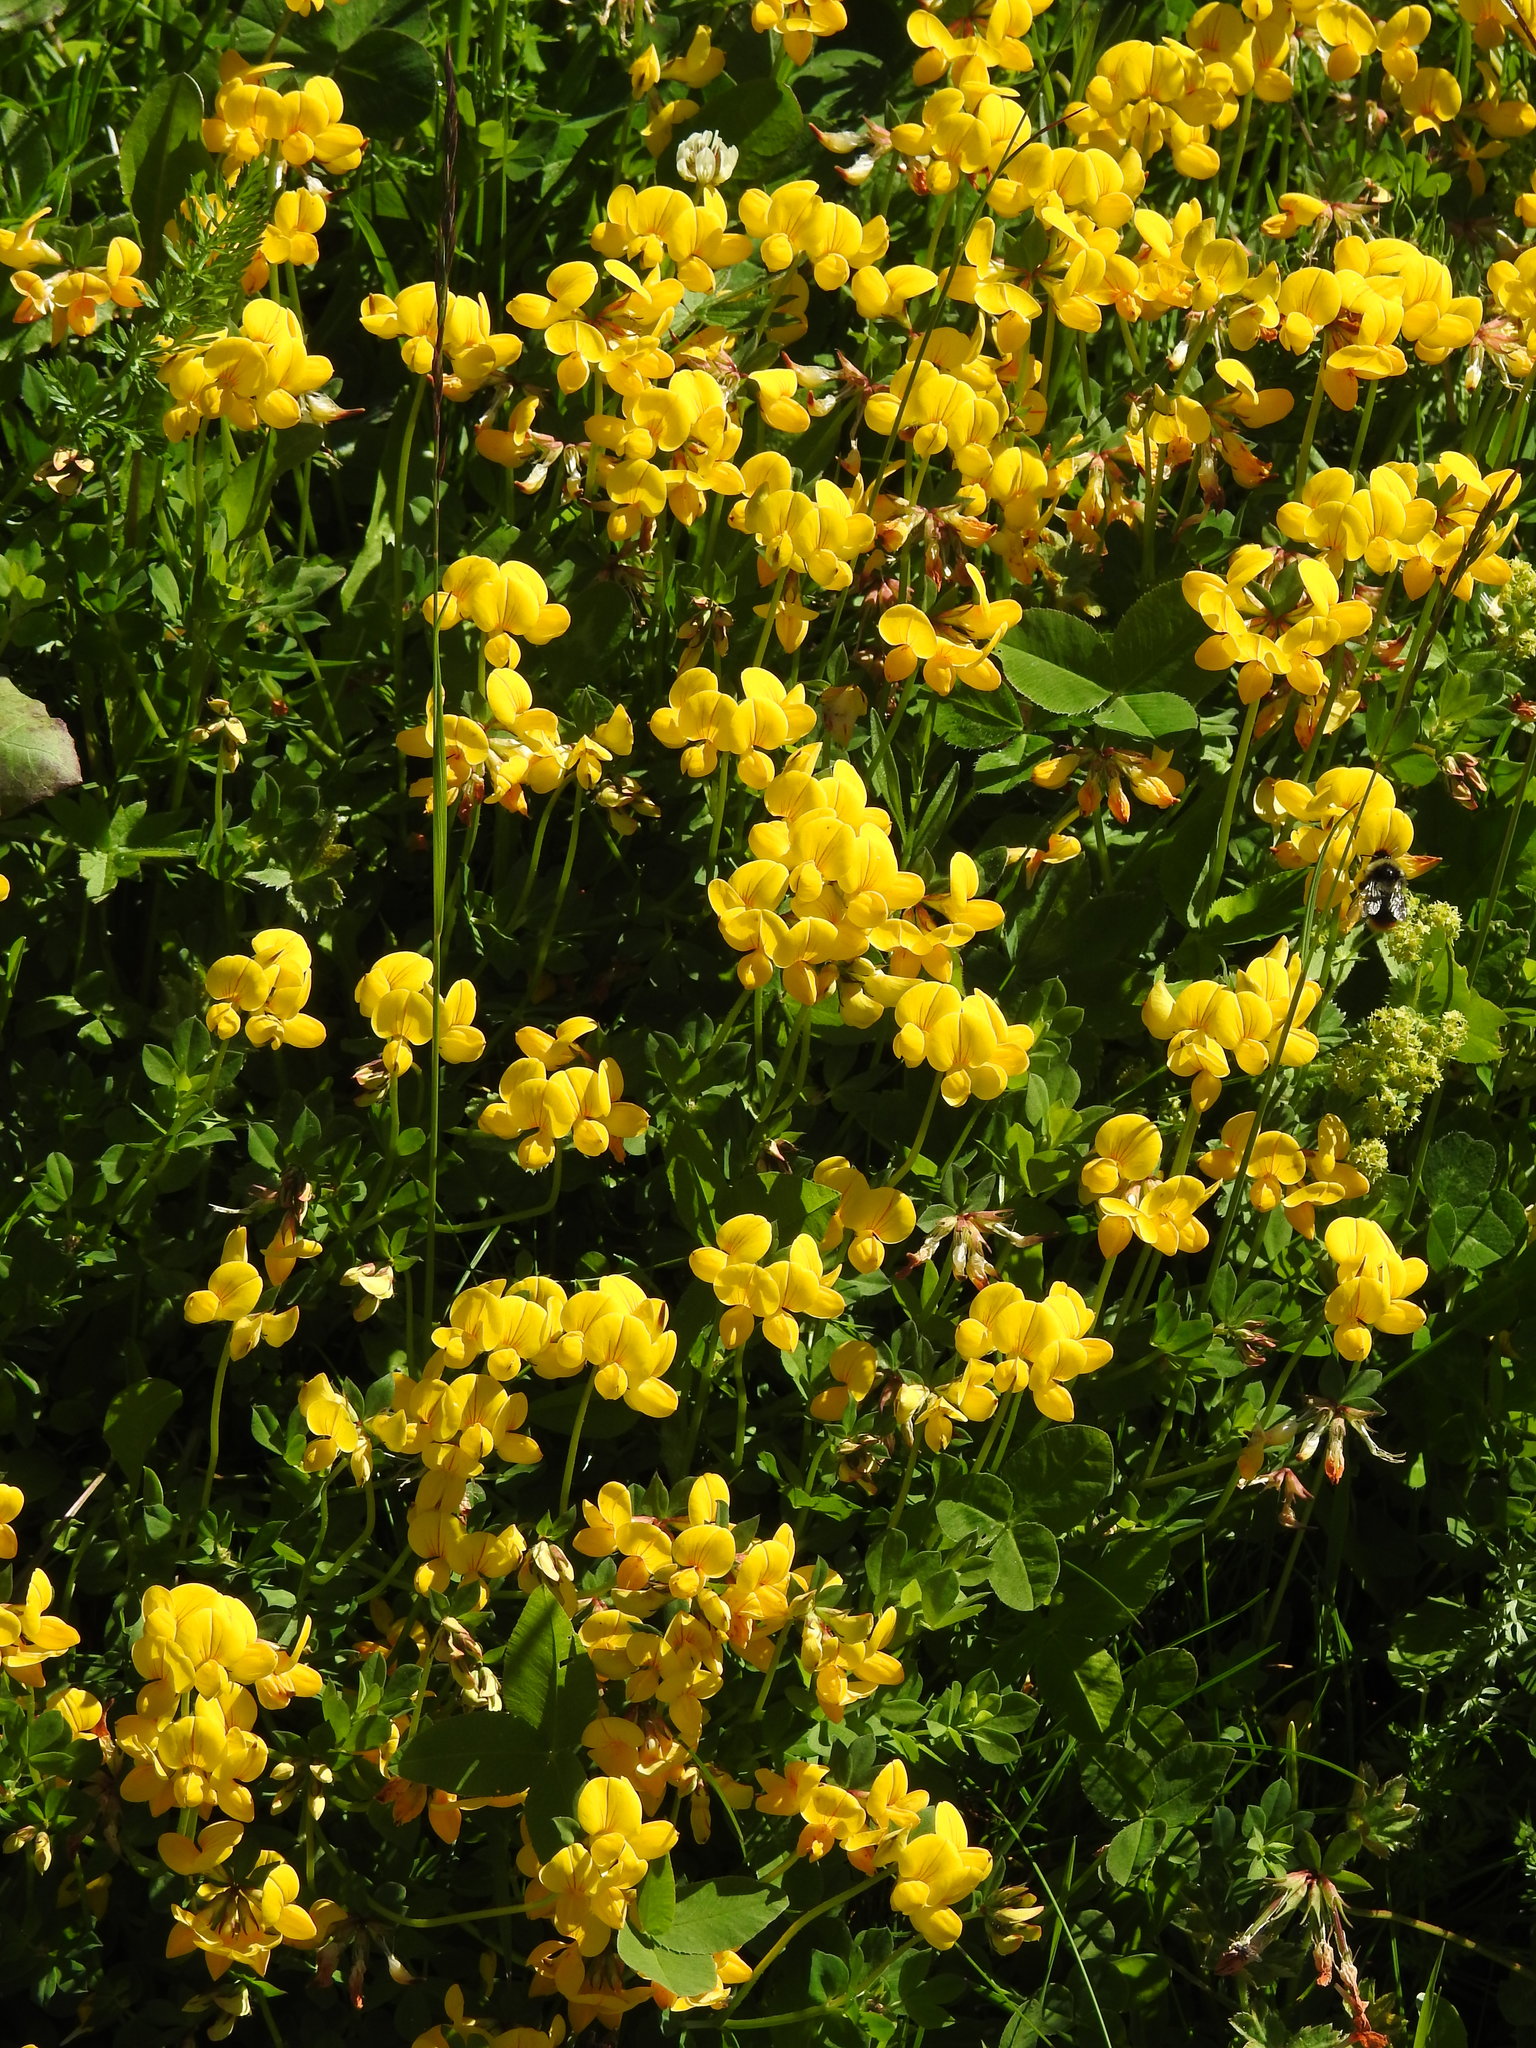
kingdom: Plantae
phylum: Tracheophyta
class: Magnoliopsida
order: Fabales
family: Fabaceae
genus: Lotus
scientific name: Lotus alpinus
